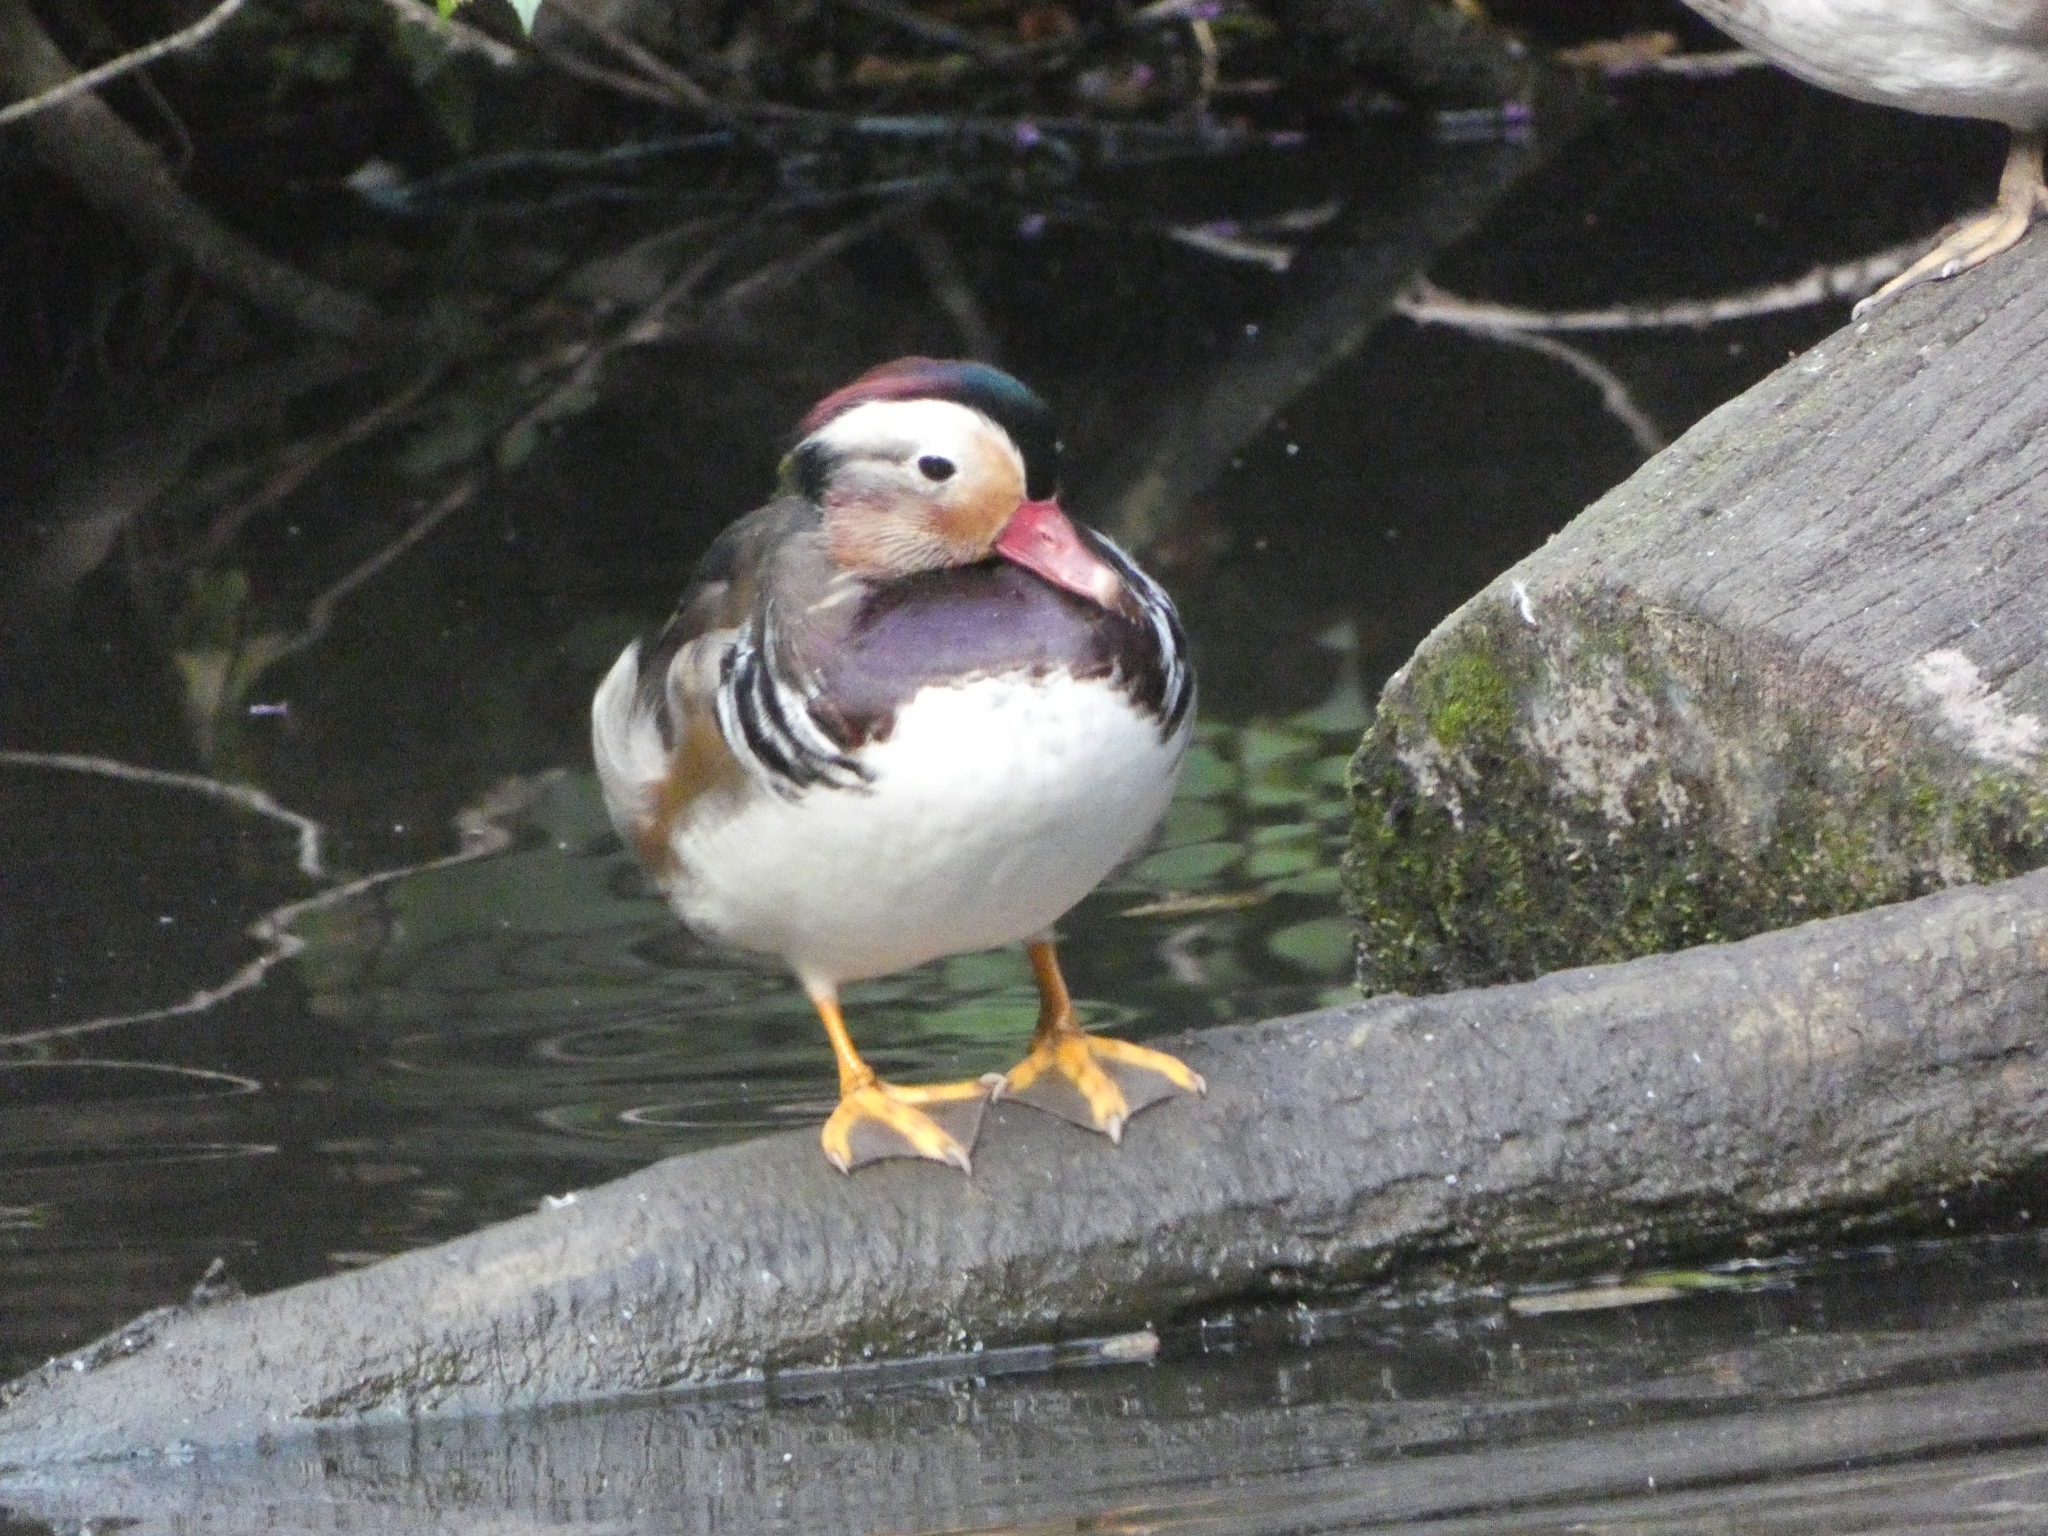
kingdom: Animalia
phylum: Chordata
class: Aves
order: Anseriformes
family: Anatidae
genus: Aix
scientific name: Aix galericulata
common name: Mandarin duck
